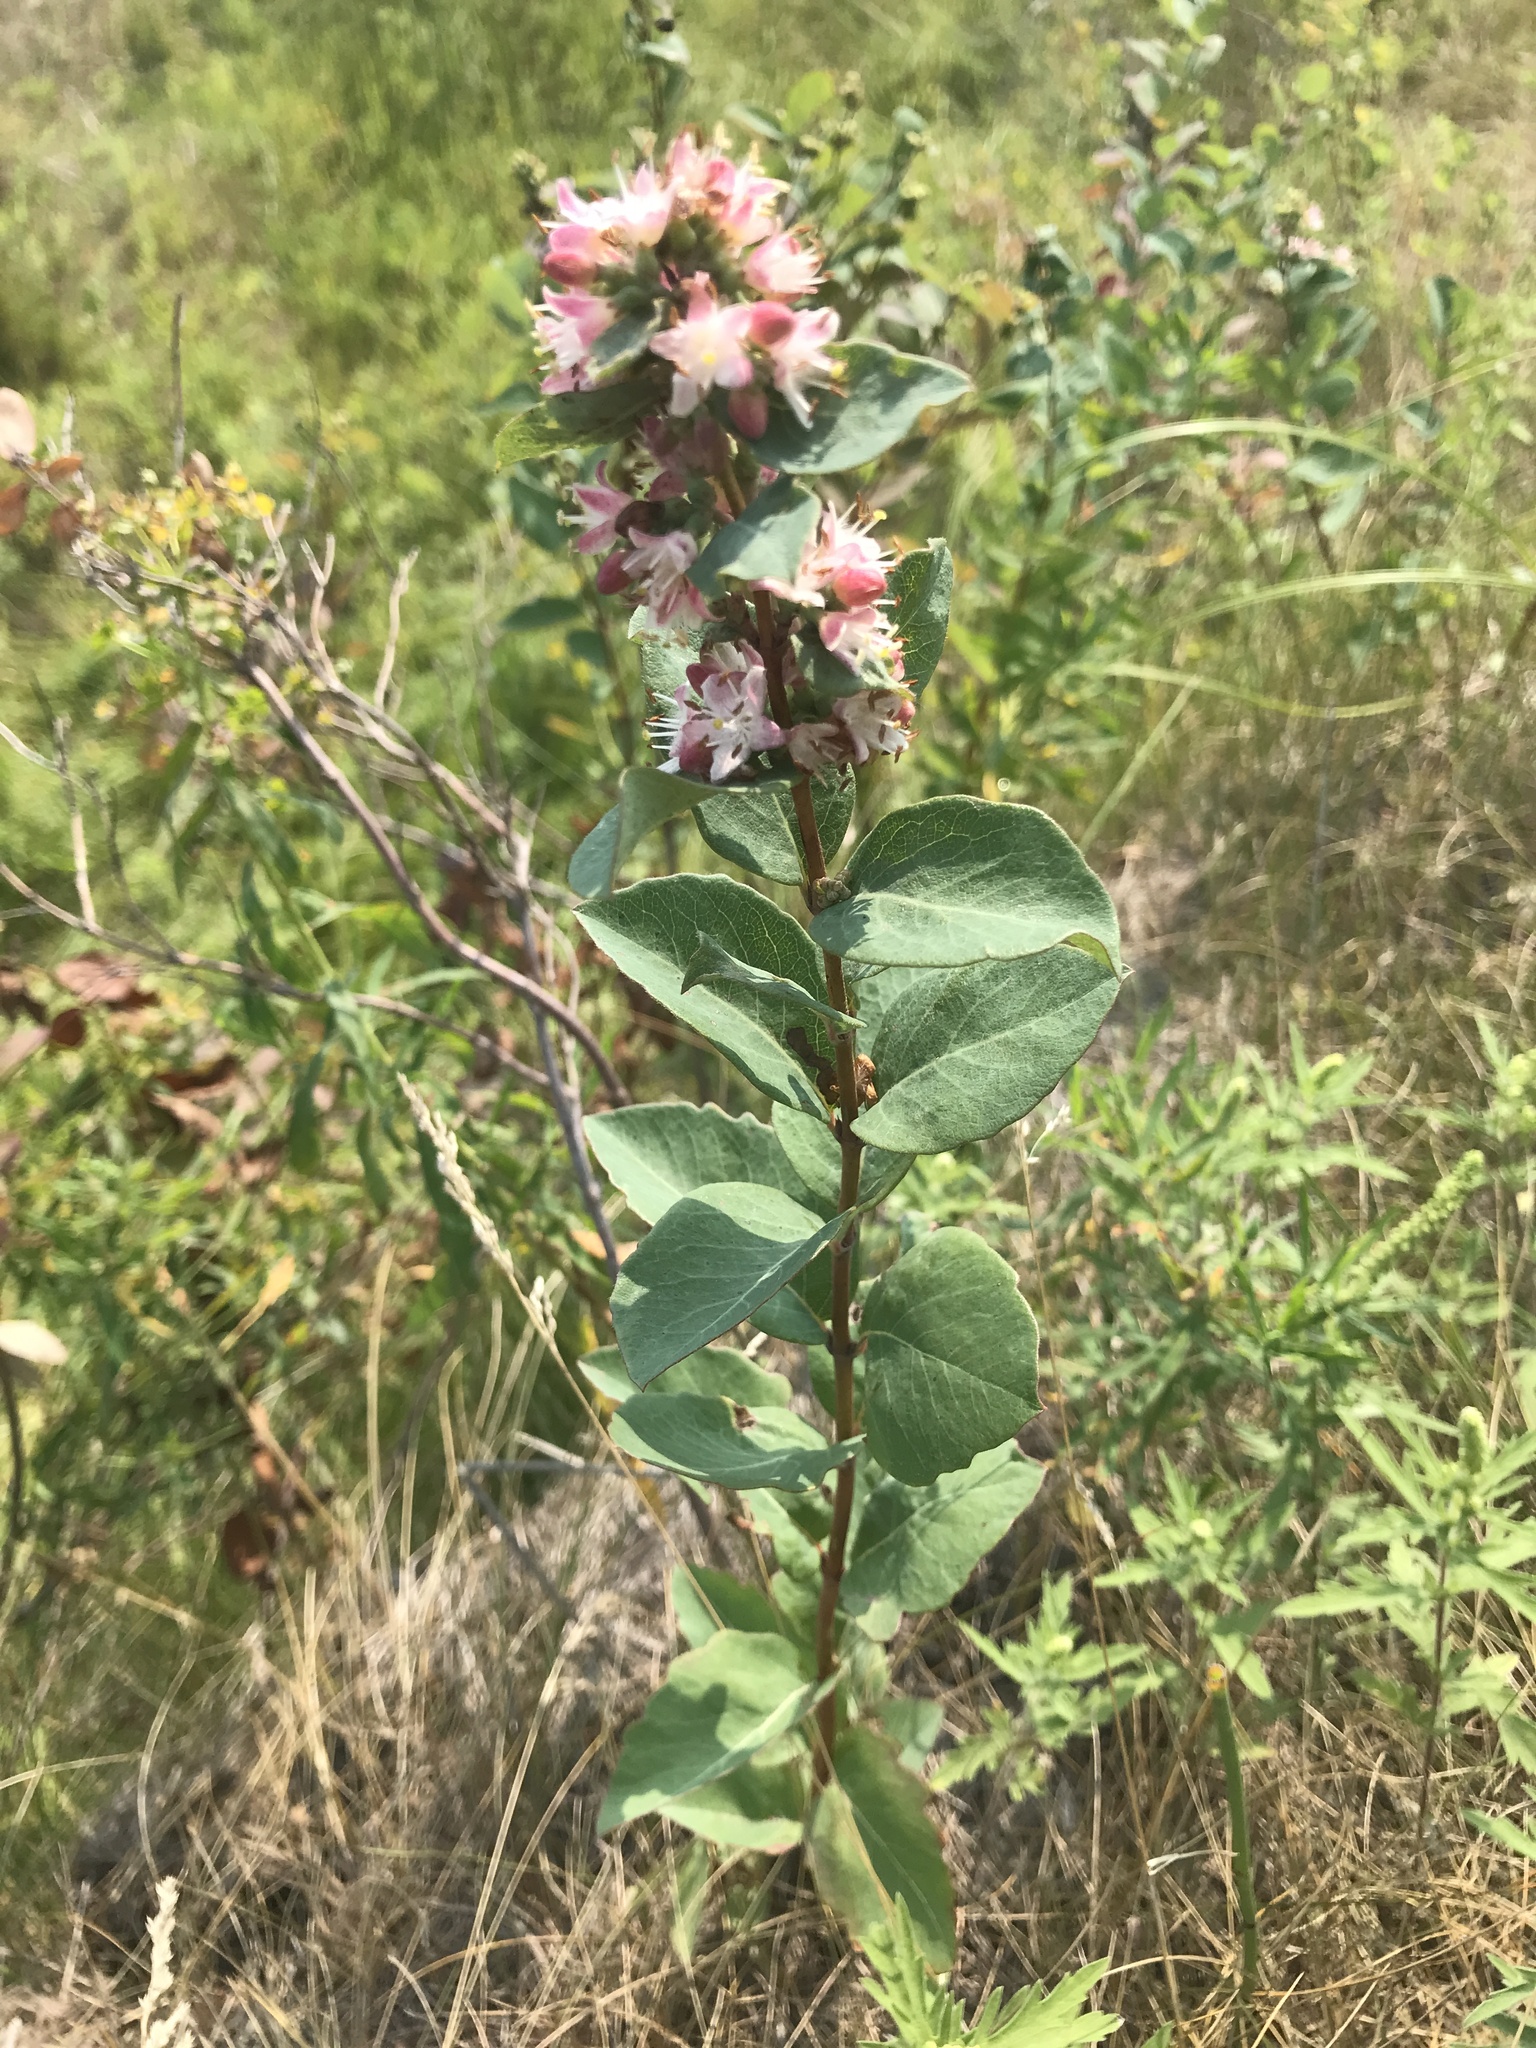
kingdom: Plantae
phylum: Tracheophyta
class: Magnoliopsida
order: Dipsacales
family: Caprifoliaceae
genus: Symphoricarpos
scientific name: Symphoricarpos occidentalis
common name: Wolfberry
